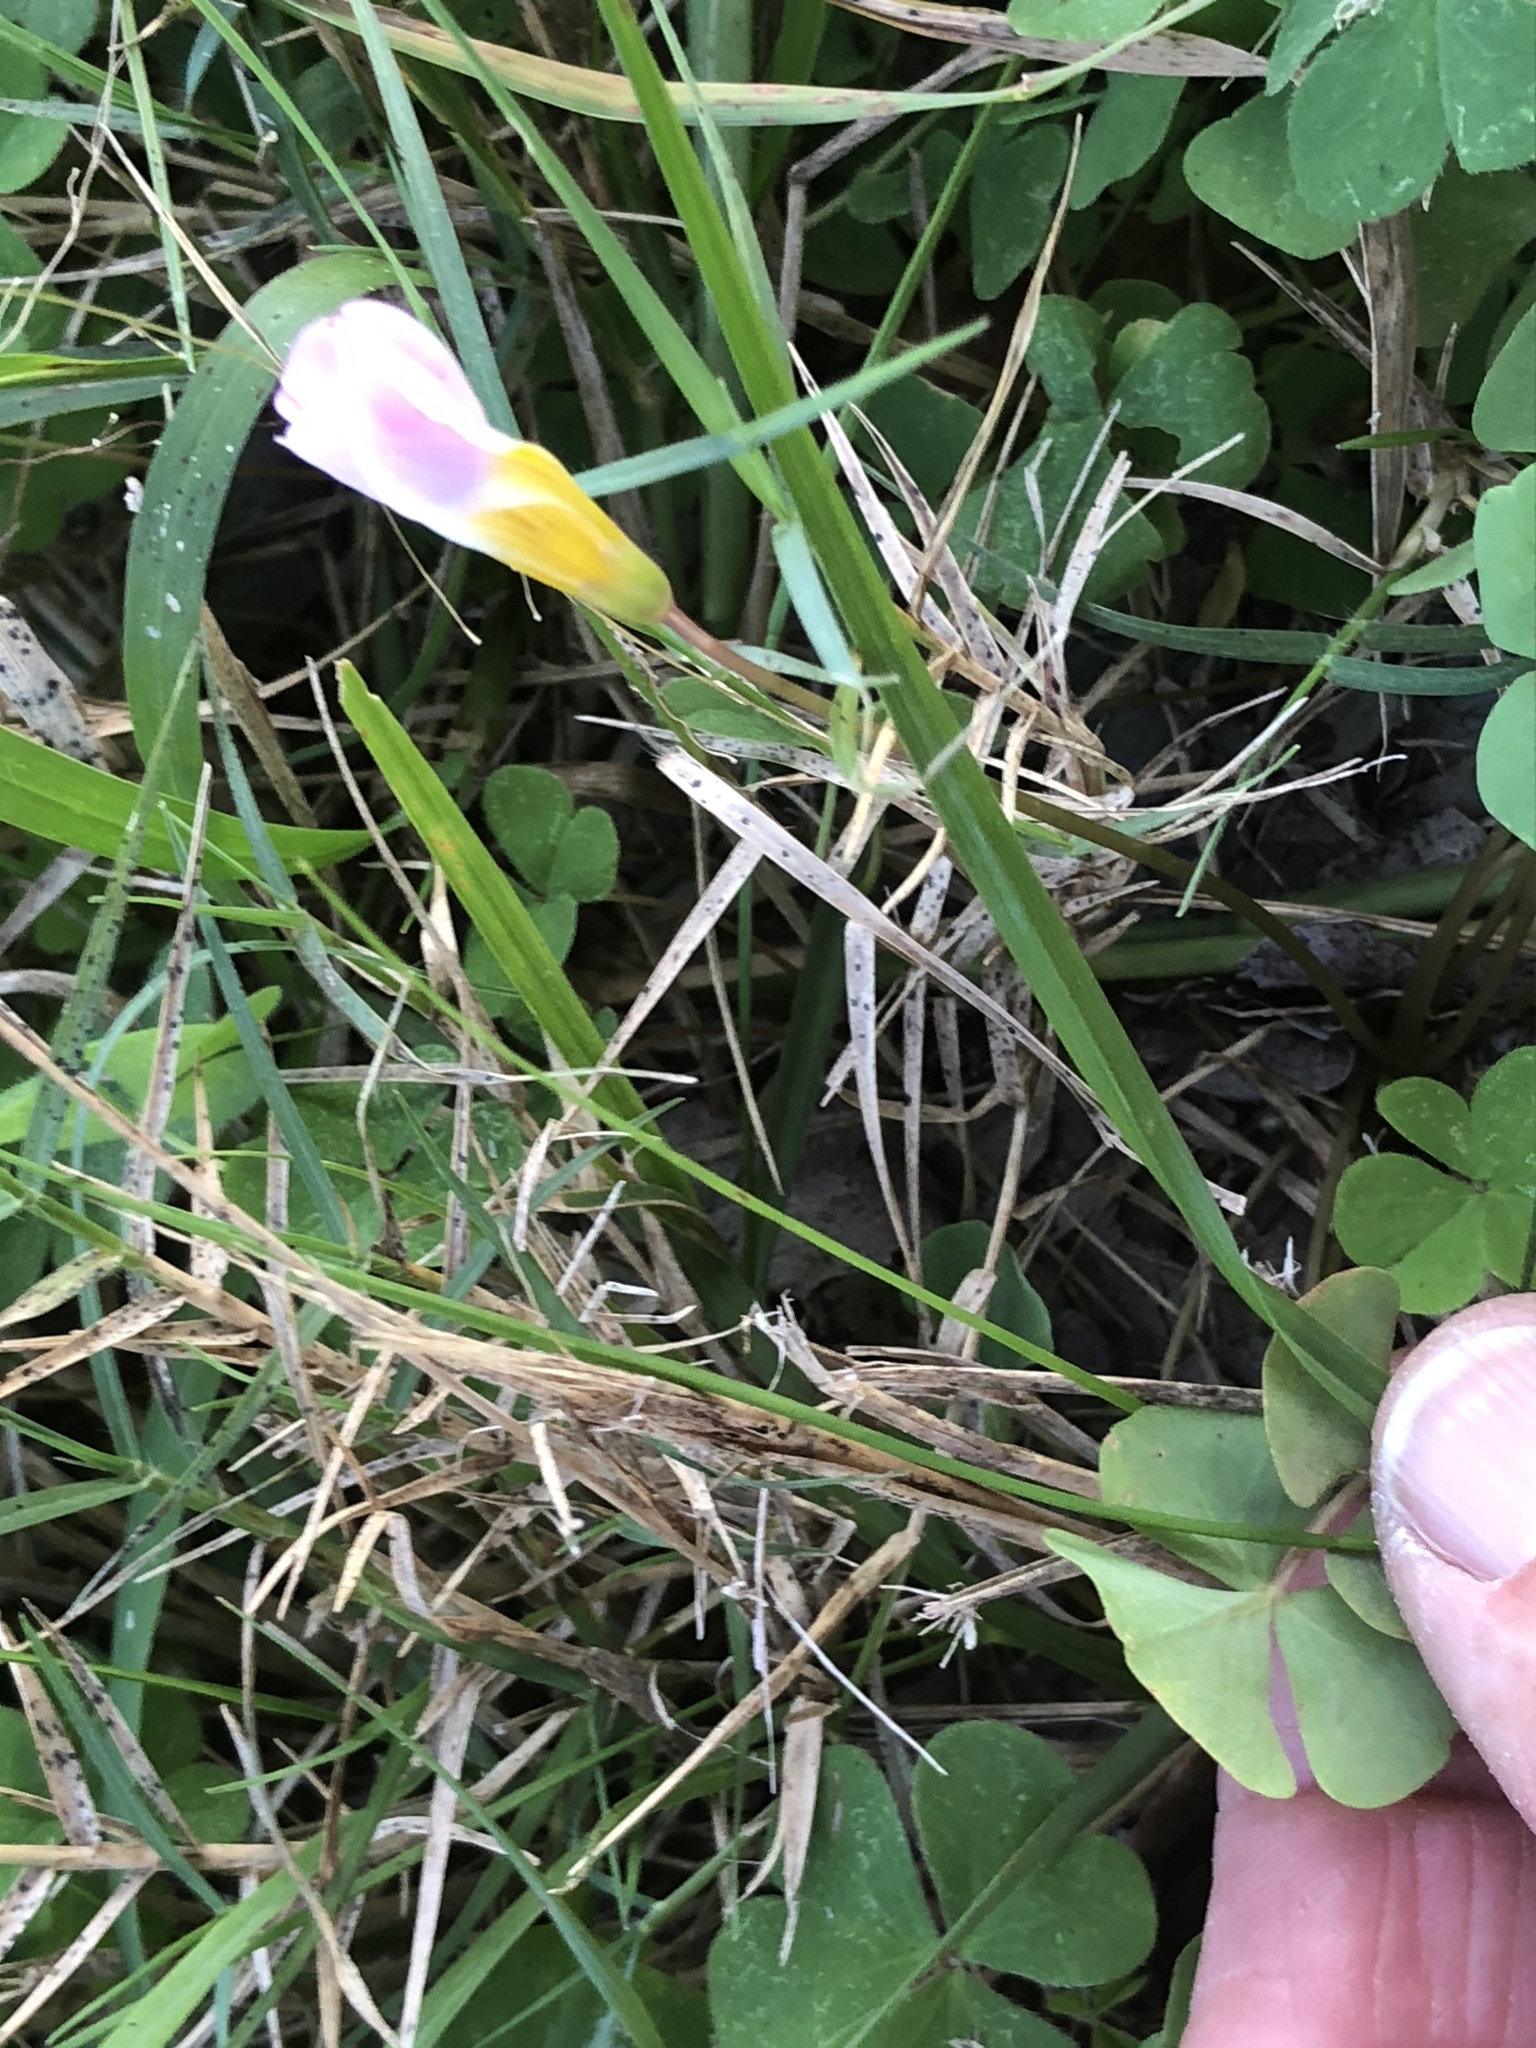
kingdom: Plantae
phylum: Tracheophyta
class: Magnoliopsida
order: Oxalidales
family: Oxalidaceae
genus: Oxalis
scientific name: Oxalis obliquifolia
